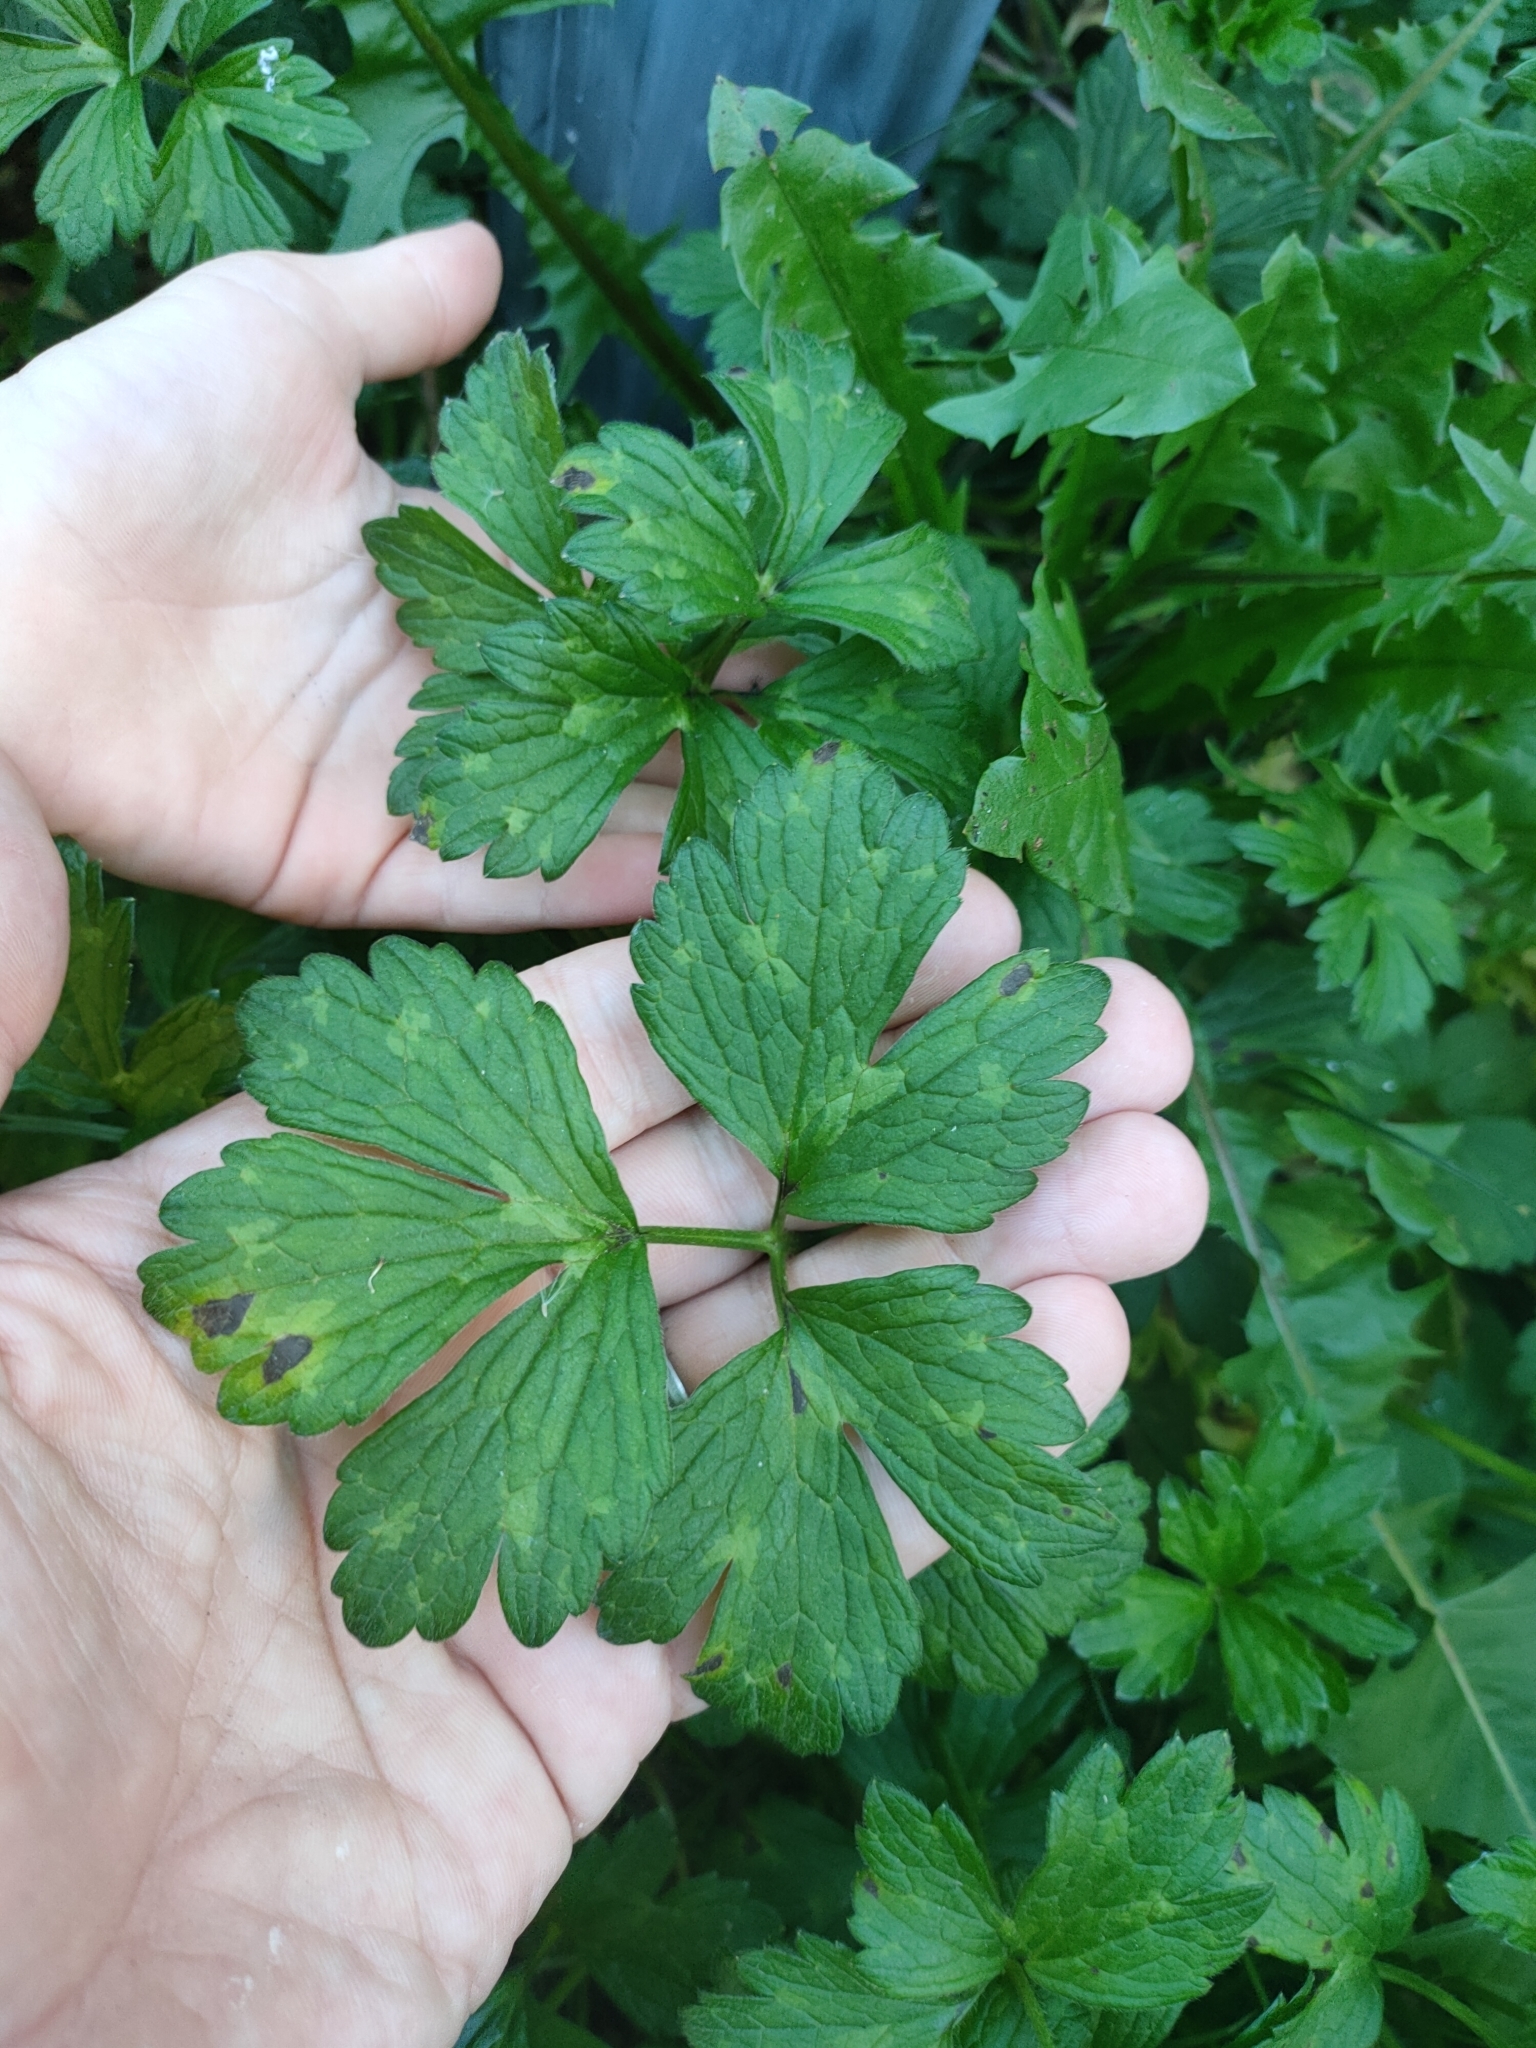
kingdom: Plantae
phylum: Tracheophyta
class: Magnoliopsida
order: Ranunculales
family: Ranunculaceae
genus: Ranunculus
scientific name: Ranunculus repens
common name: Creeping buttercup
